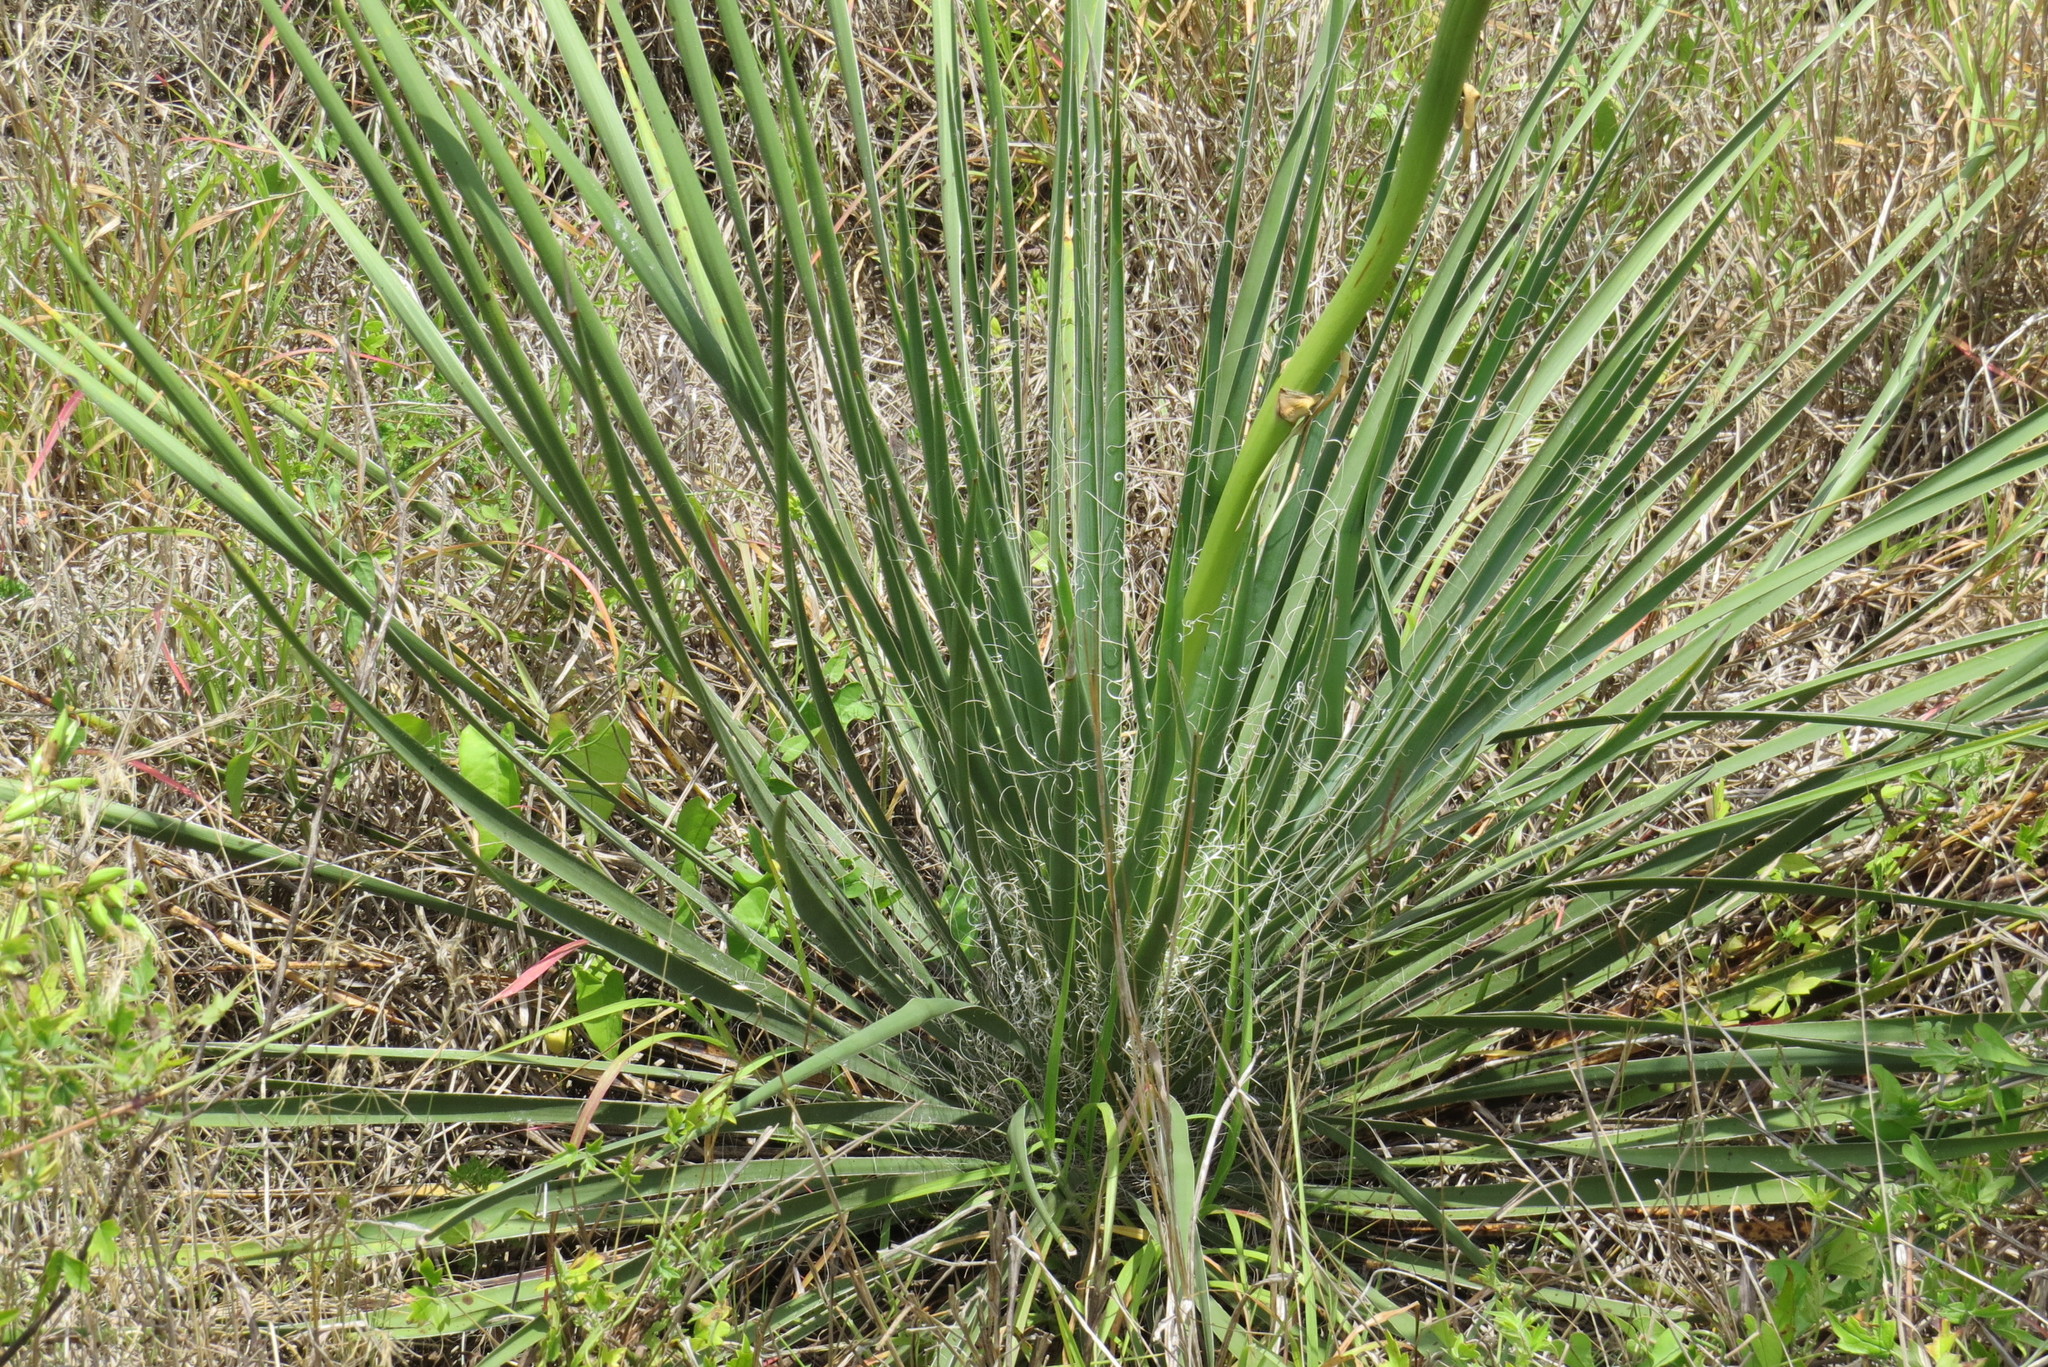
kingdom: Plantae
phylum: Tracheophyta
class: Liliopsida
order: Asparagales
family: Asparagaceae
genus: Yucca
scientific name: Yucca constricta
